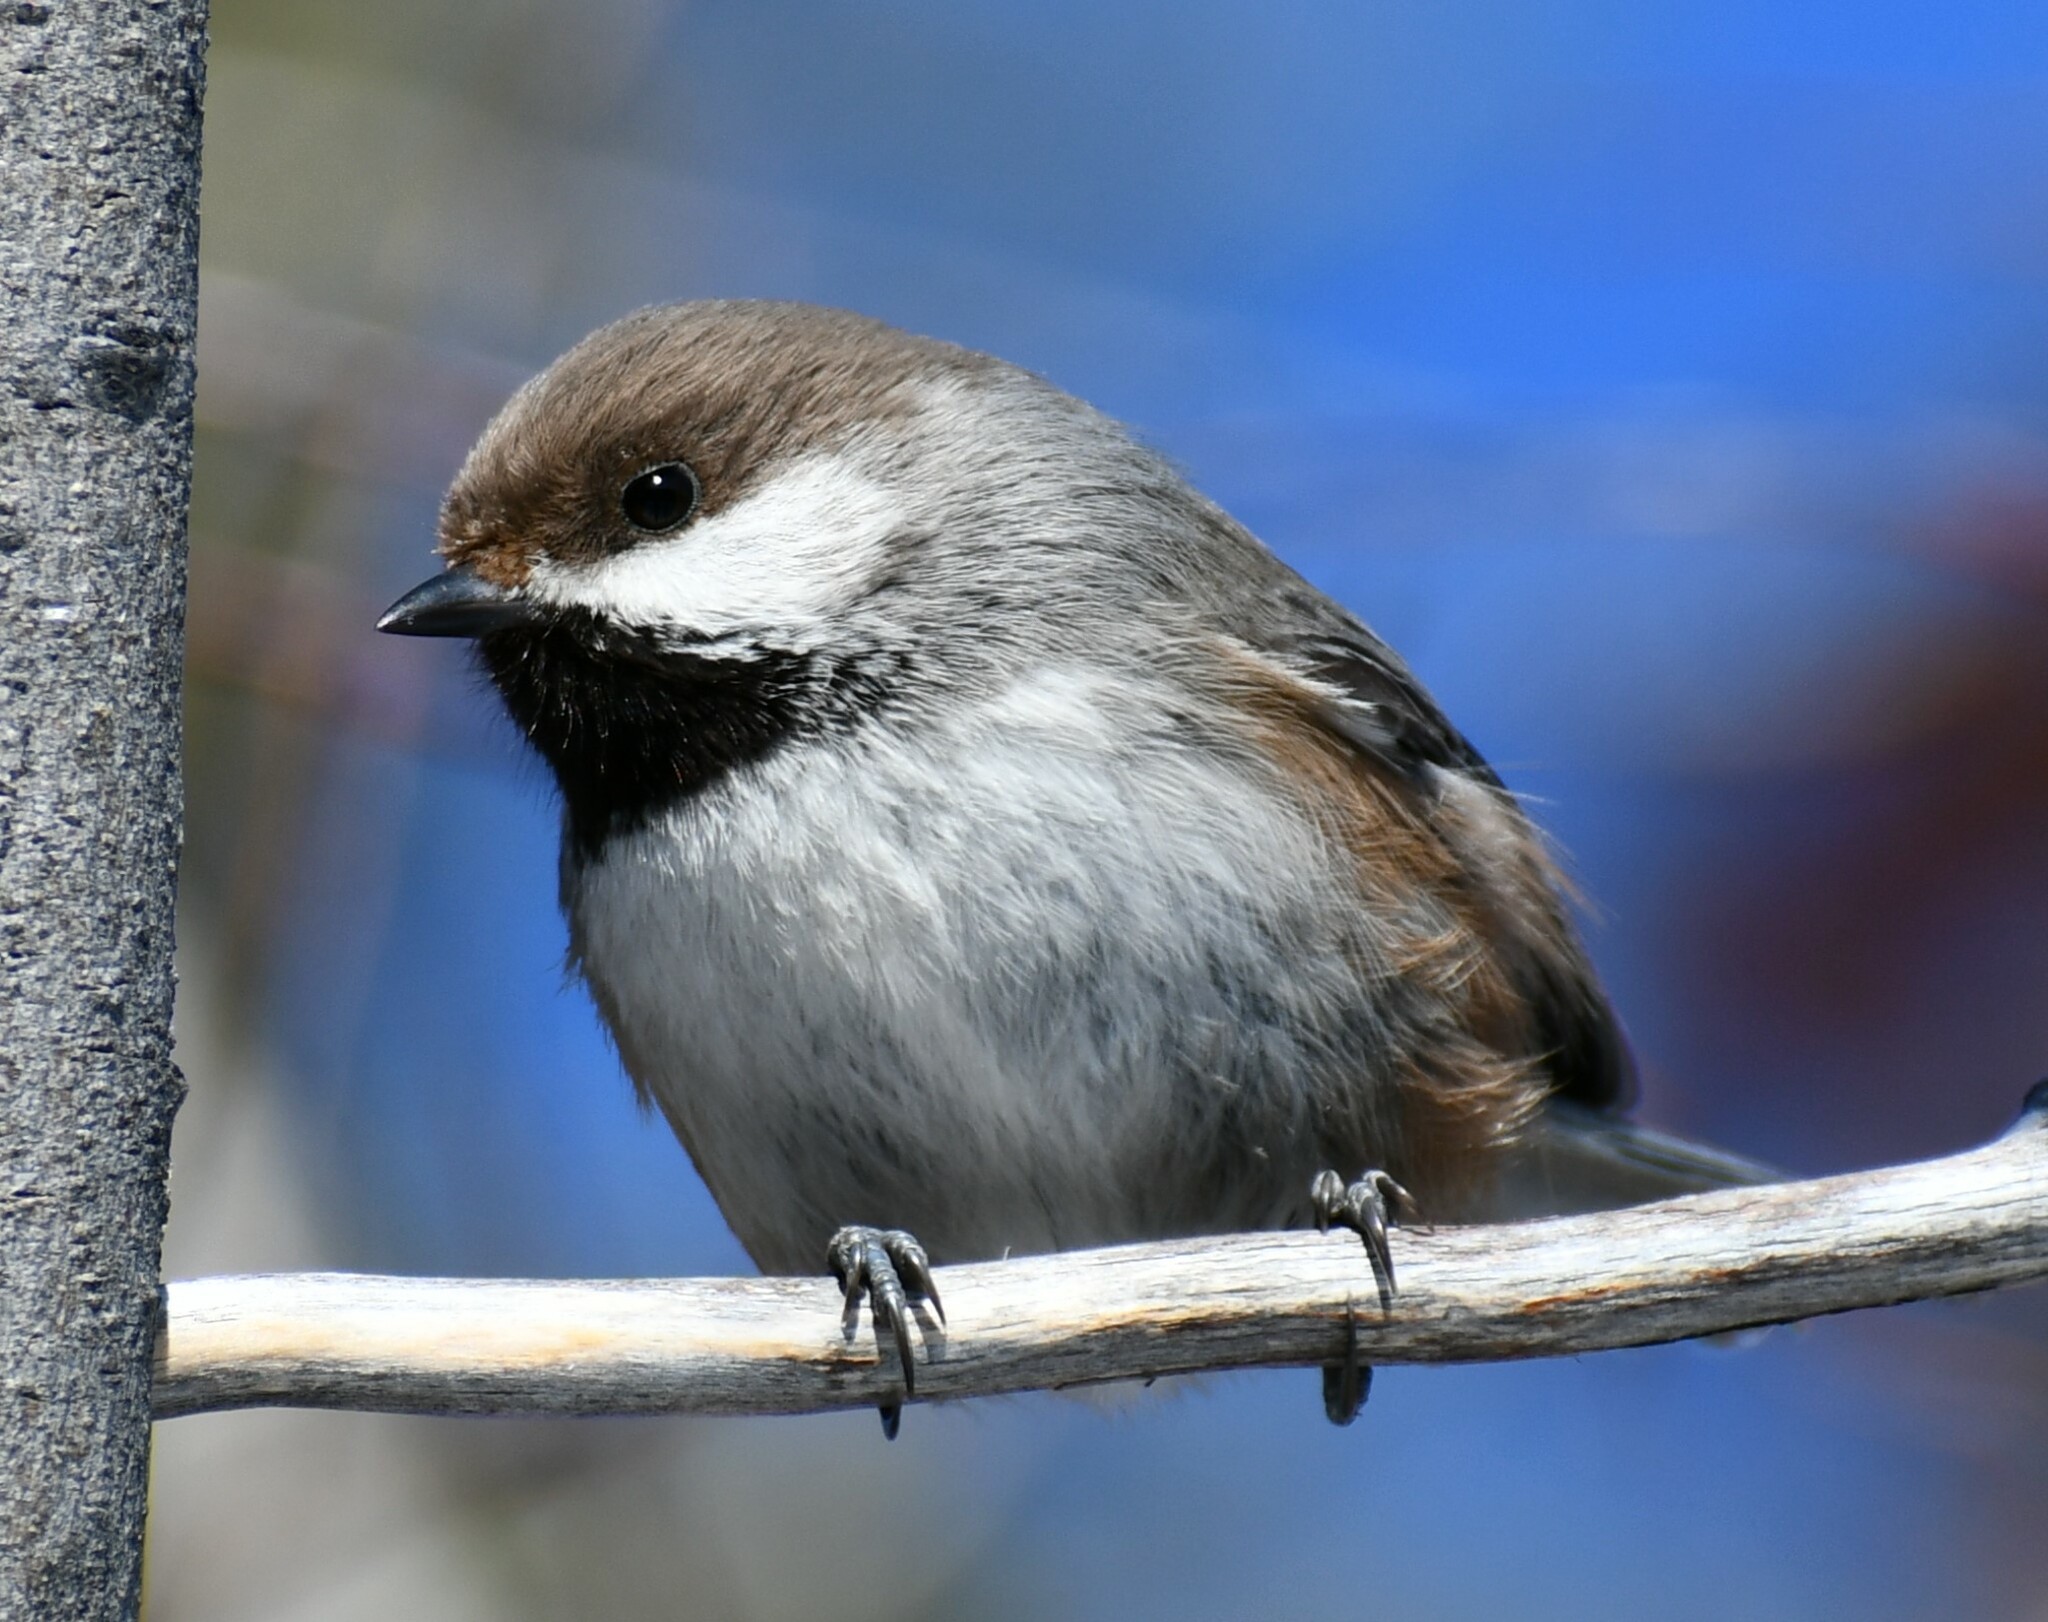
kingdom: Animalia
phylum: Chordata
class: Aves
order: Passeriformes
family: Paridae
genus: Poecile
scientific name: Poecile hudsonicus
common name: Boreal chickadee
